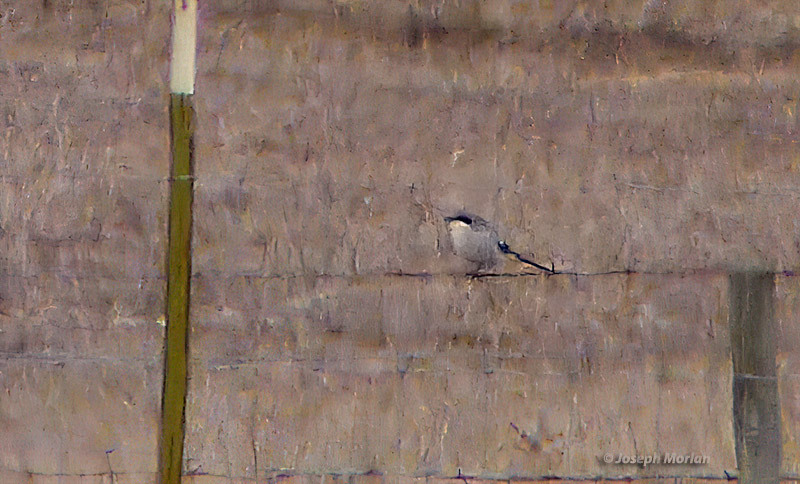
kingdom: Animalia
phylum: Chordata
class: Aves
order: Passeriformes
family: Laniidae
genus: Lanius
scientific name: Lanius ludovicianus
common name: Loggerhead shrike
